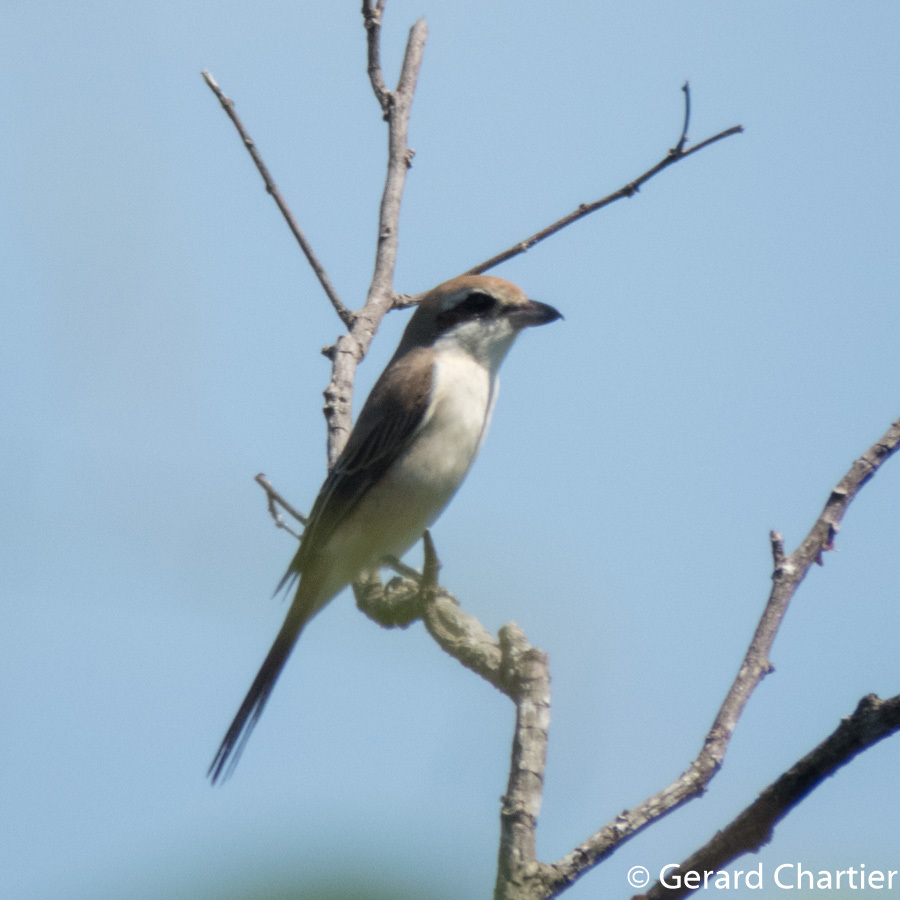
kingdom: Animalia
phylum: Chordata
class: Aves
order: Passeriformes
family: Laniidae
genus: Lanius
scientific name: Lanius cristatus
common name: Brown shrike
